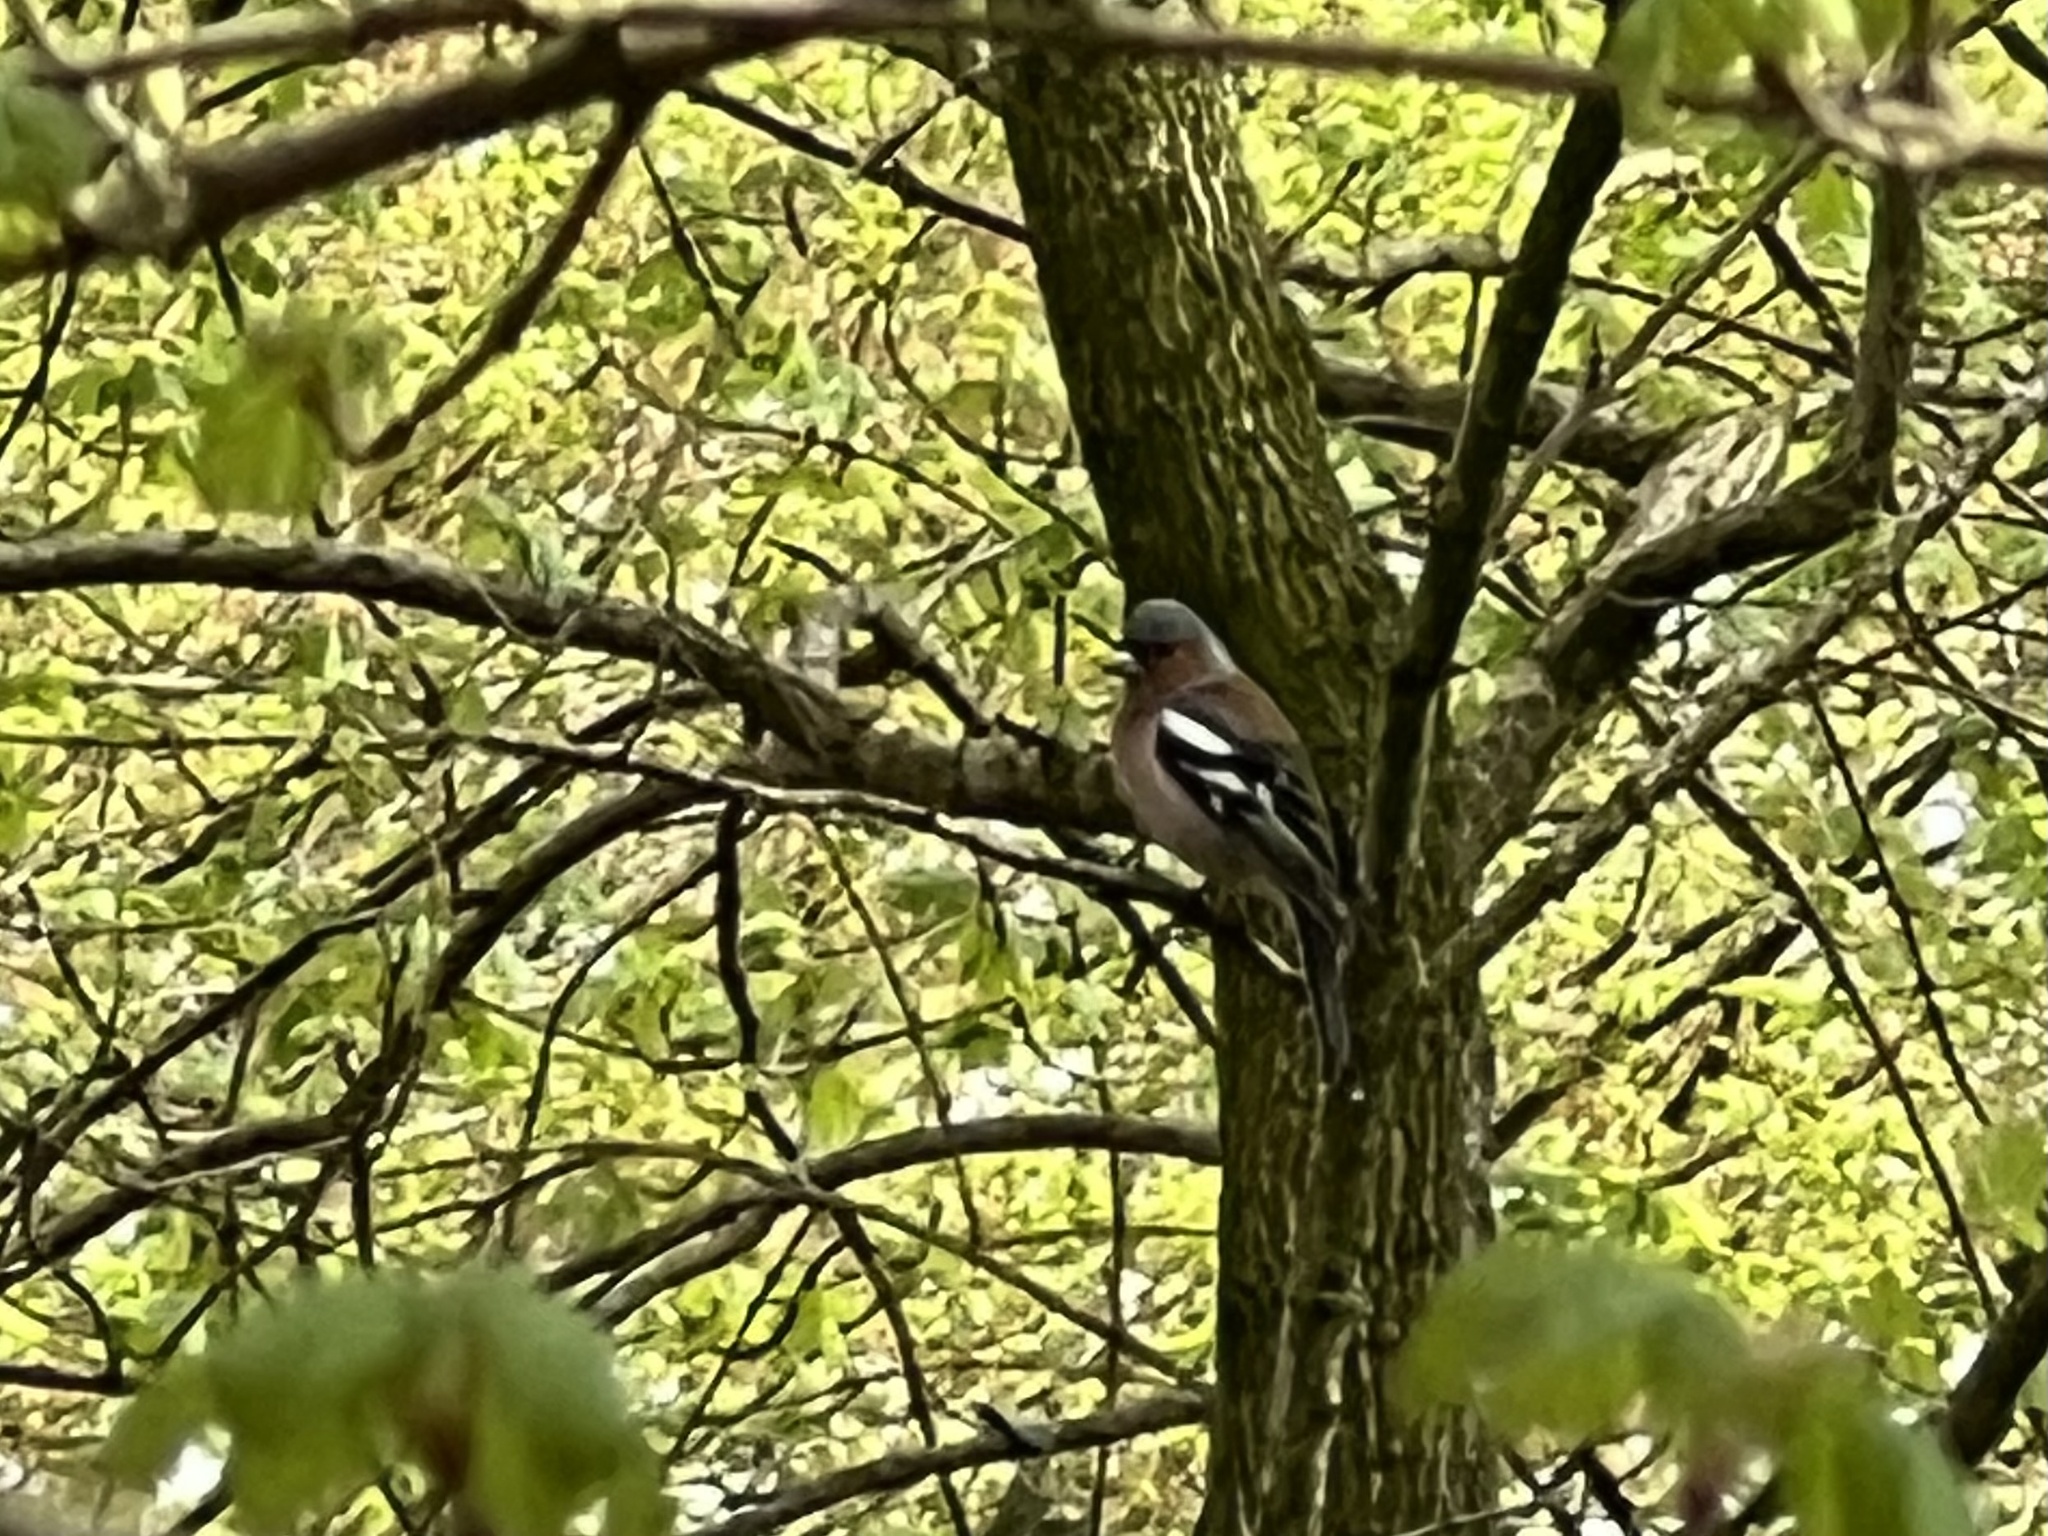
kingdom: Animalia
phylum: Chordata
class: Aves
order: Passeriformes
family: Fringillidae
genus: Fringilla
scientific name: Fringilla coelebs
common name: Common chaffinch
